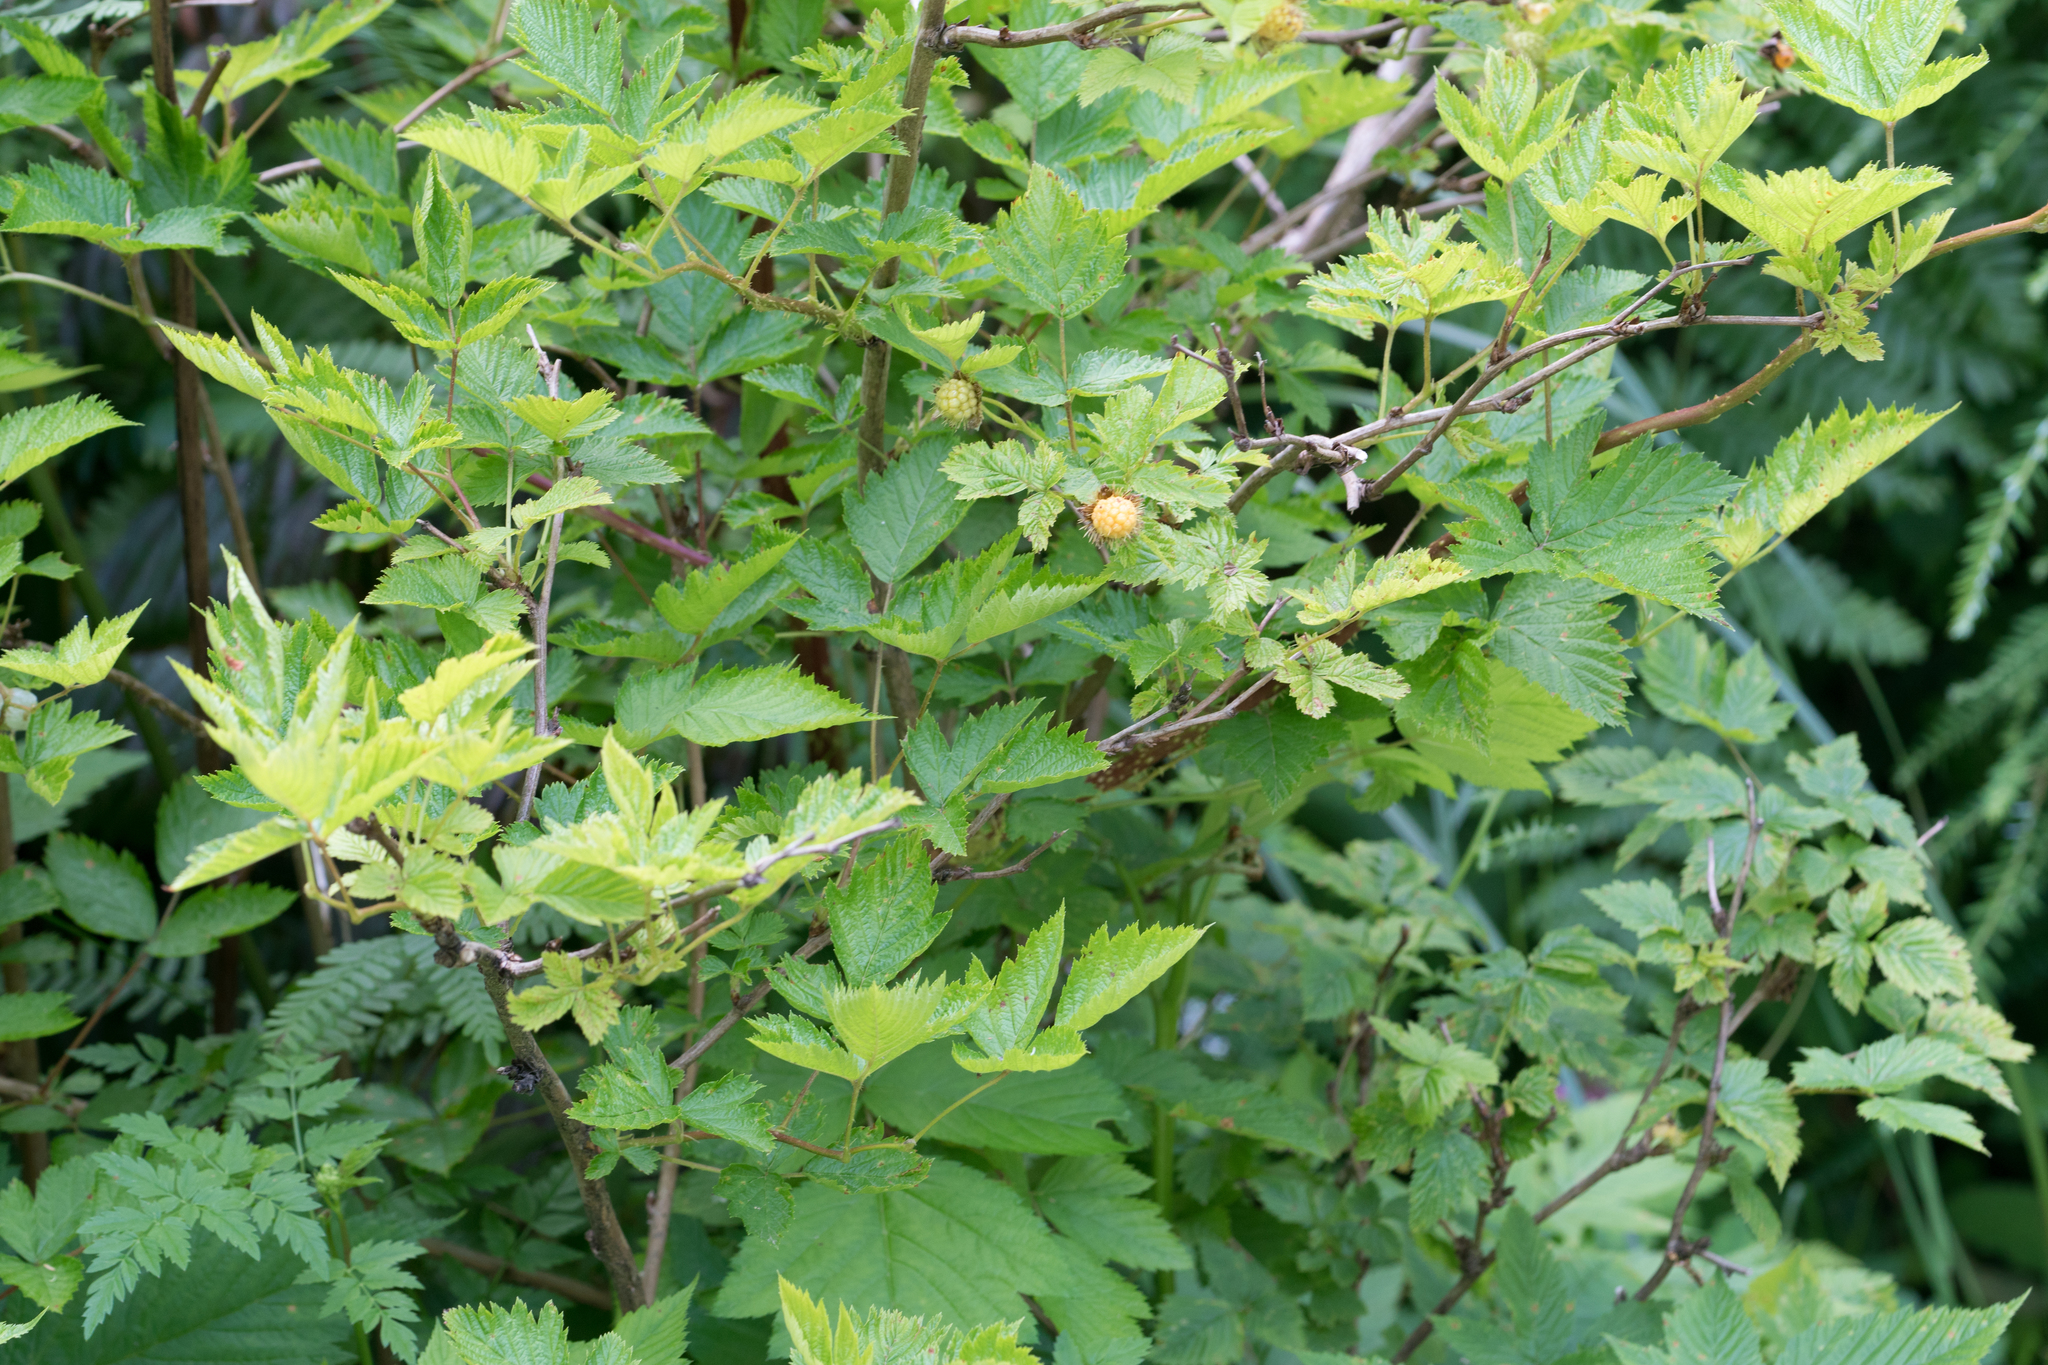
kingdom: Plantae
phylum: Tracheophyta
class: Magnoliopsida
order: Rosales
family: Rosaceae
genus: Rubus
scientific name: Rubus spectabilis
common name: Salmonberry
